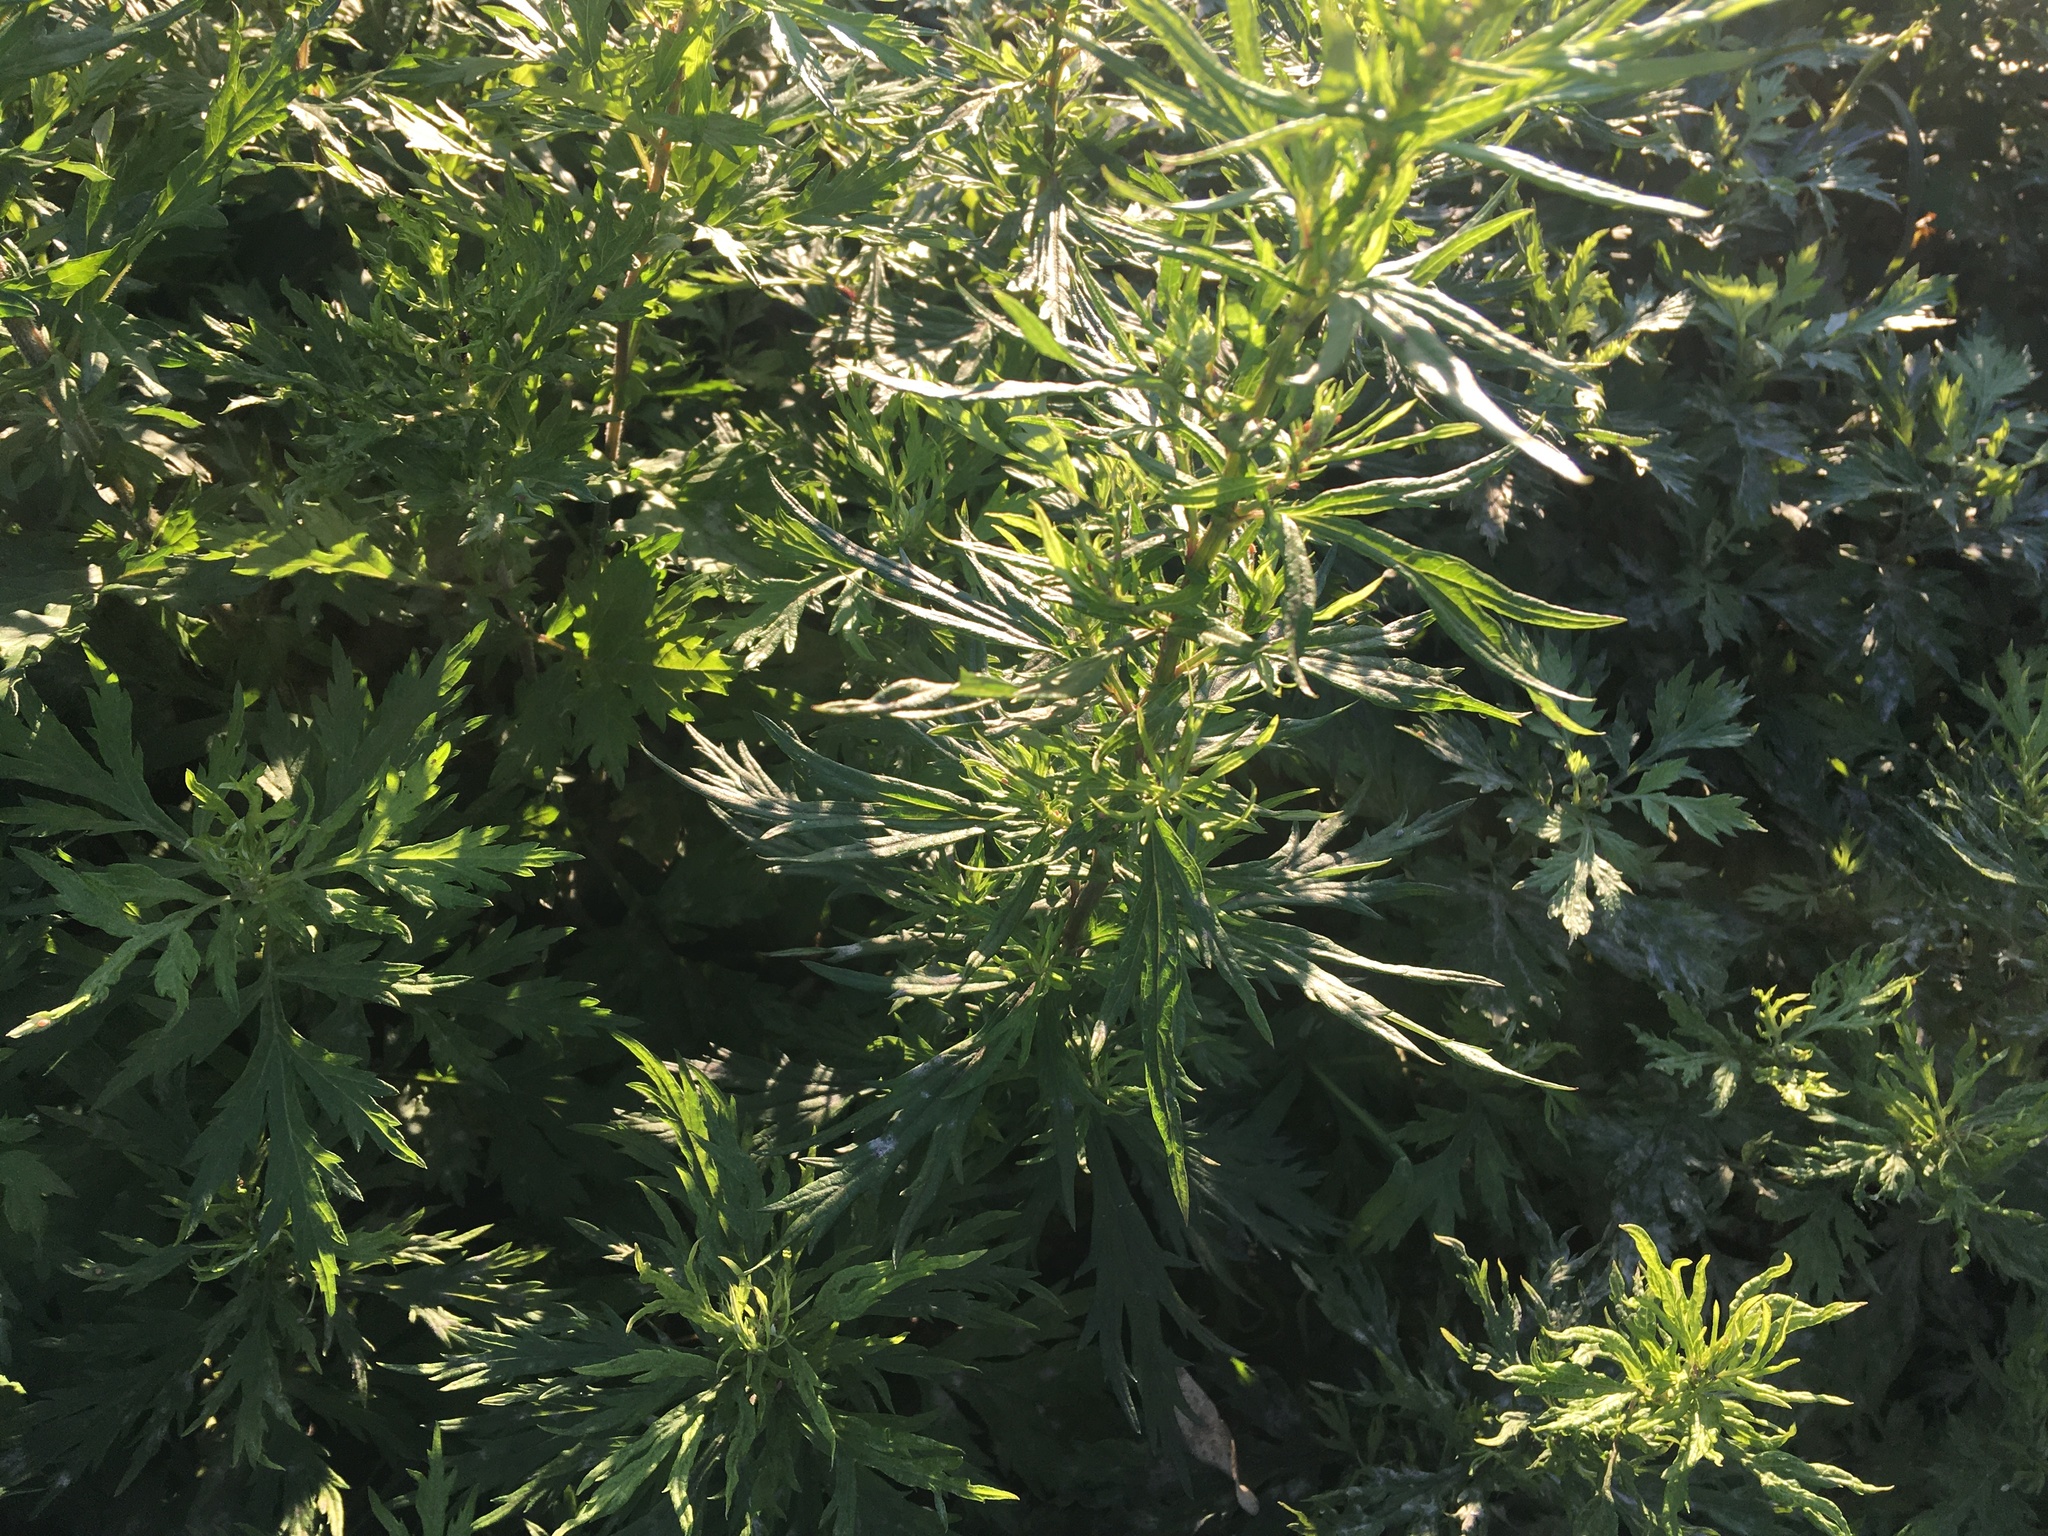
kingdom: Plantae
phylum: Tracheophyta
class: Magnoliopsida
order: Asterales
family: Asteraceae
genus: Artemisia
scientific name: Artemisia vulgaris
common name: Mugwort
